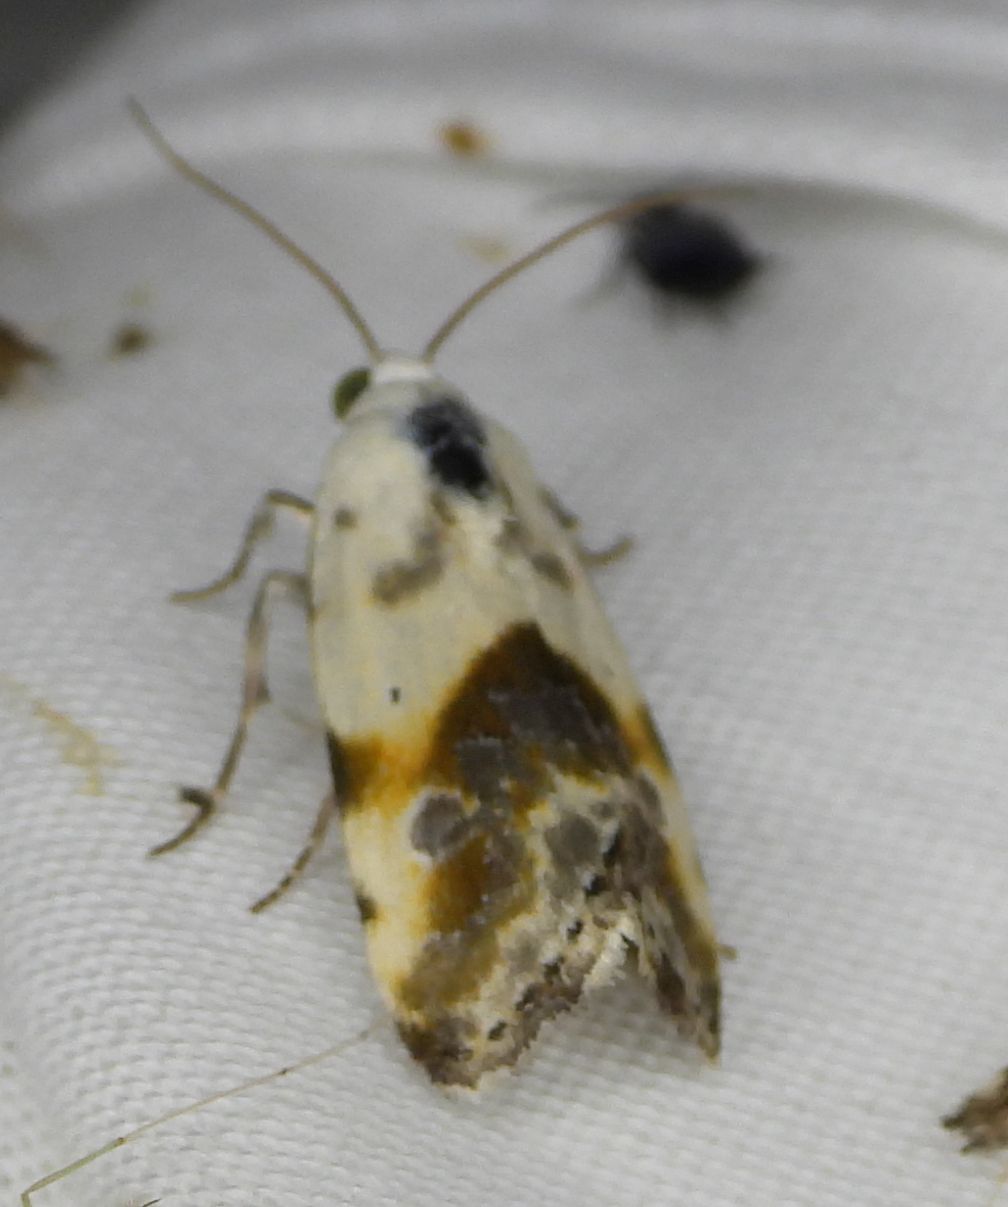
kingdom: Animalia
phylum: Arthropoda
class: Insecta
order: Lepidoptera
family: Noctuidae
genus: Acontia
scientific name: Acontia candefacta
